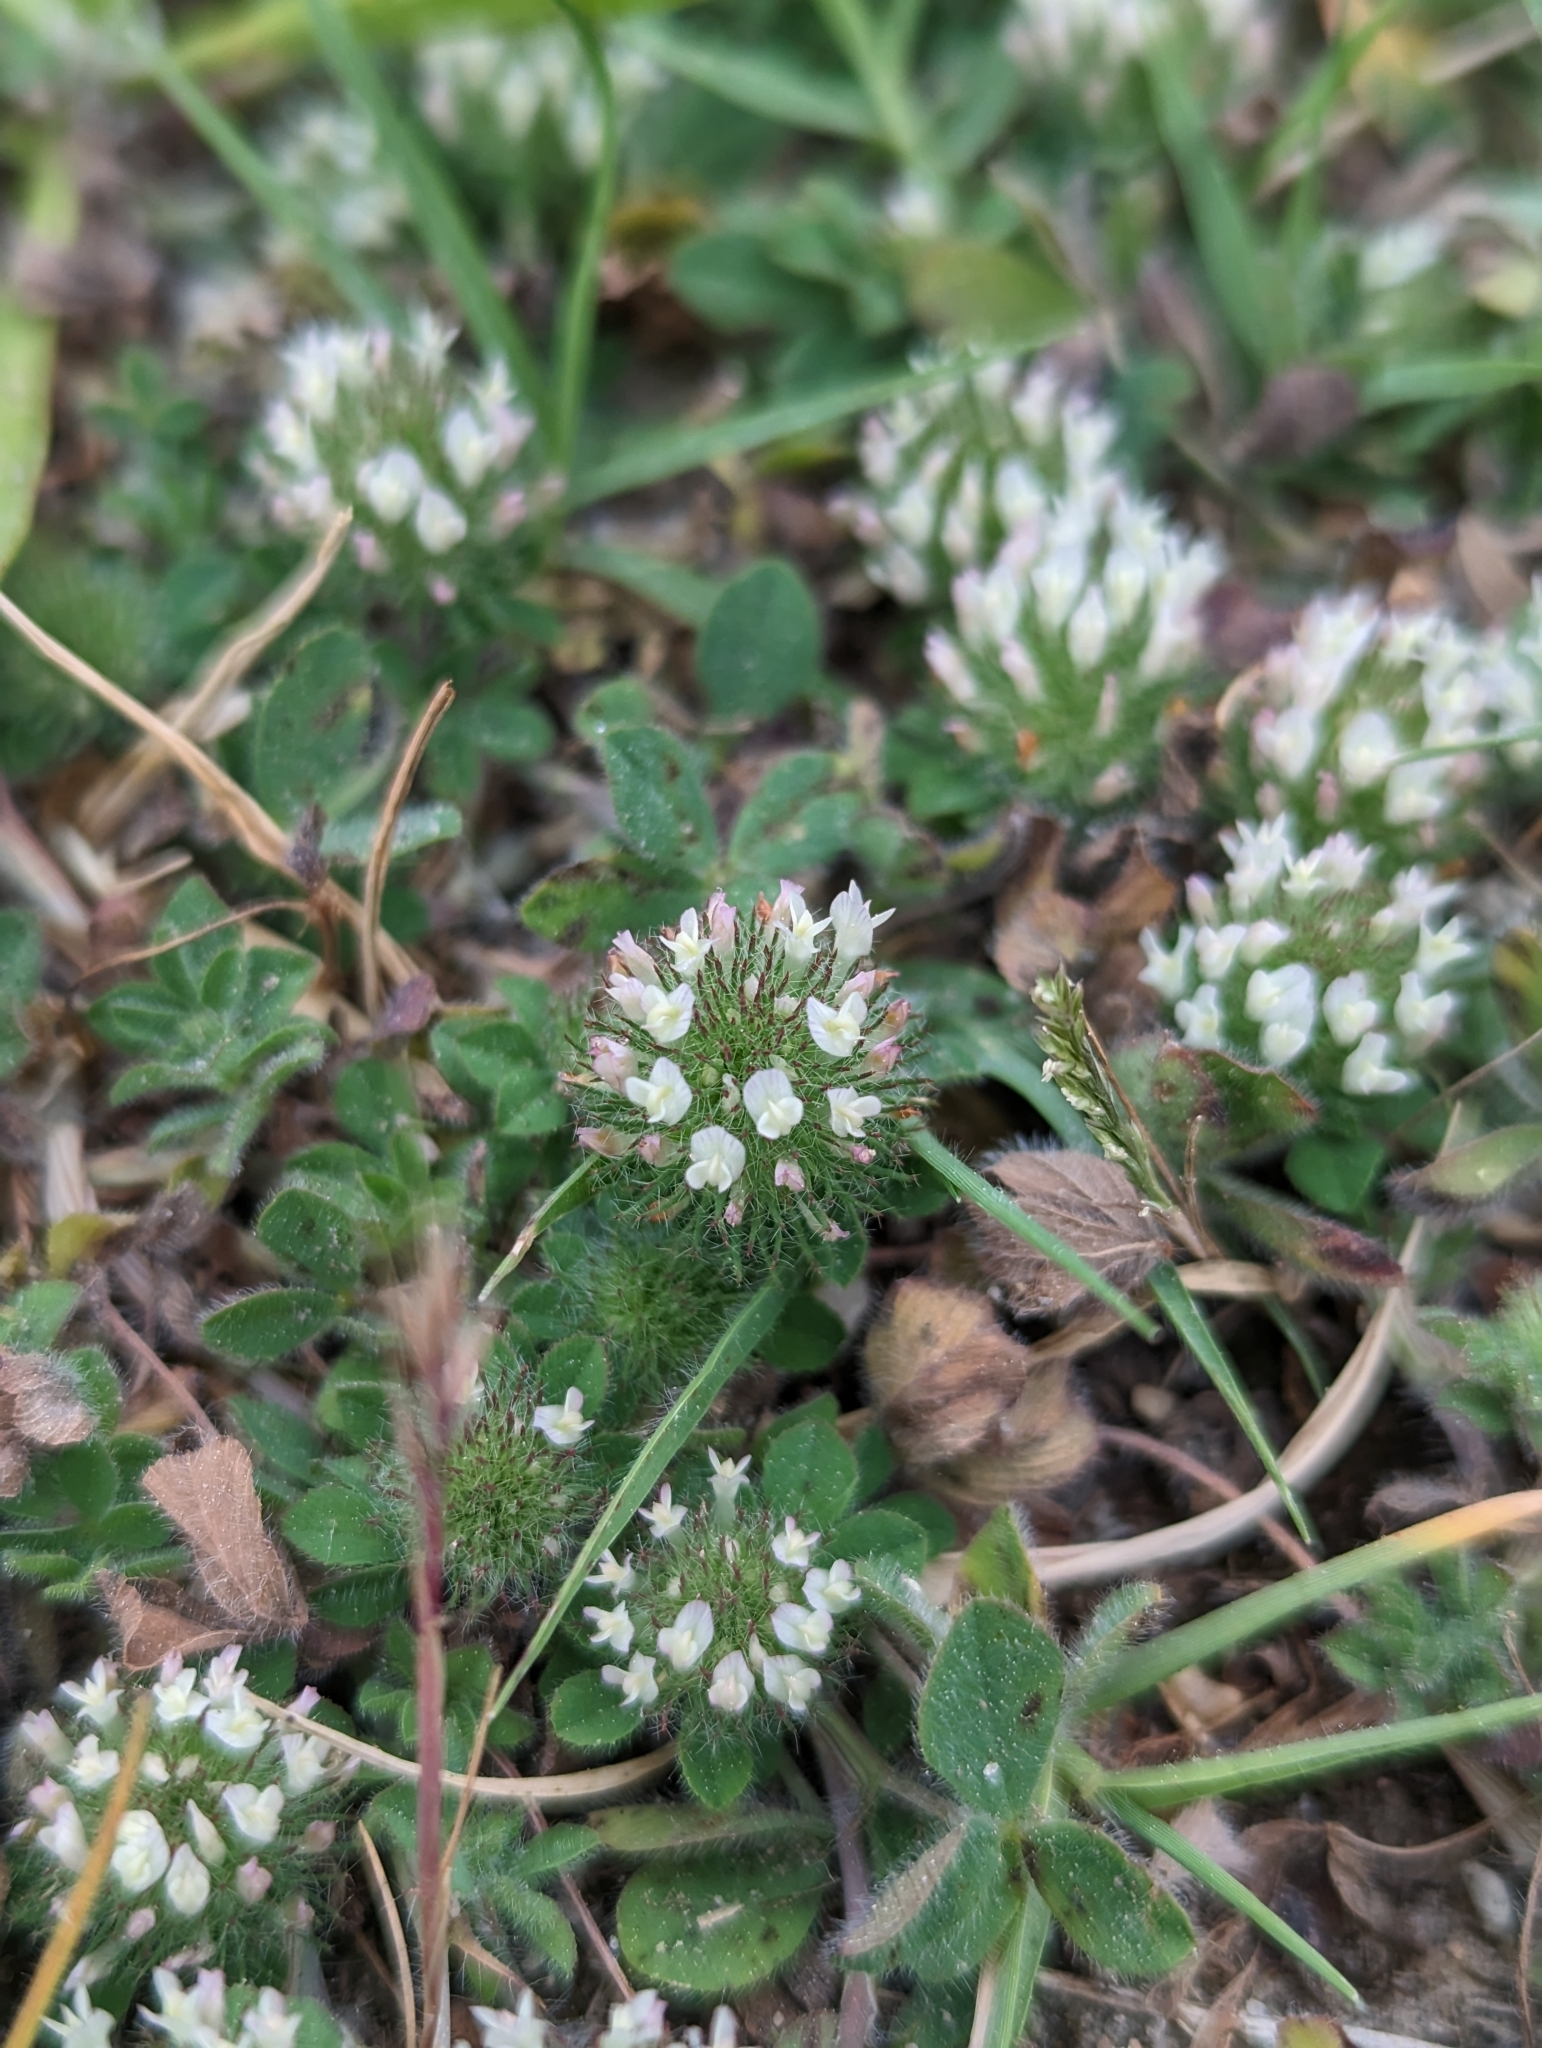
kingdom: Plantae
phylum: Tracheophyta
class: Magnoliopsida
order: Fabales
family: Fabaceae
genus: Trifolium
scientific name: Trifolium cherleri
